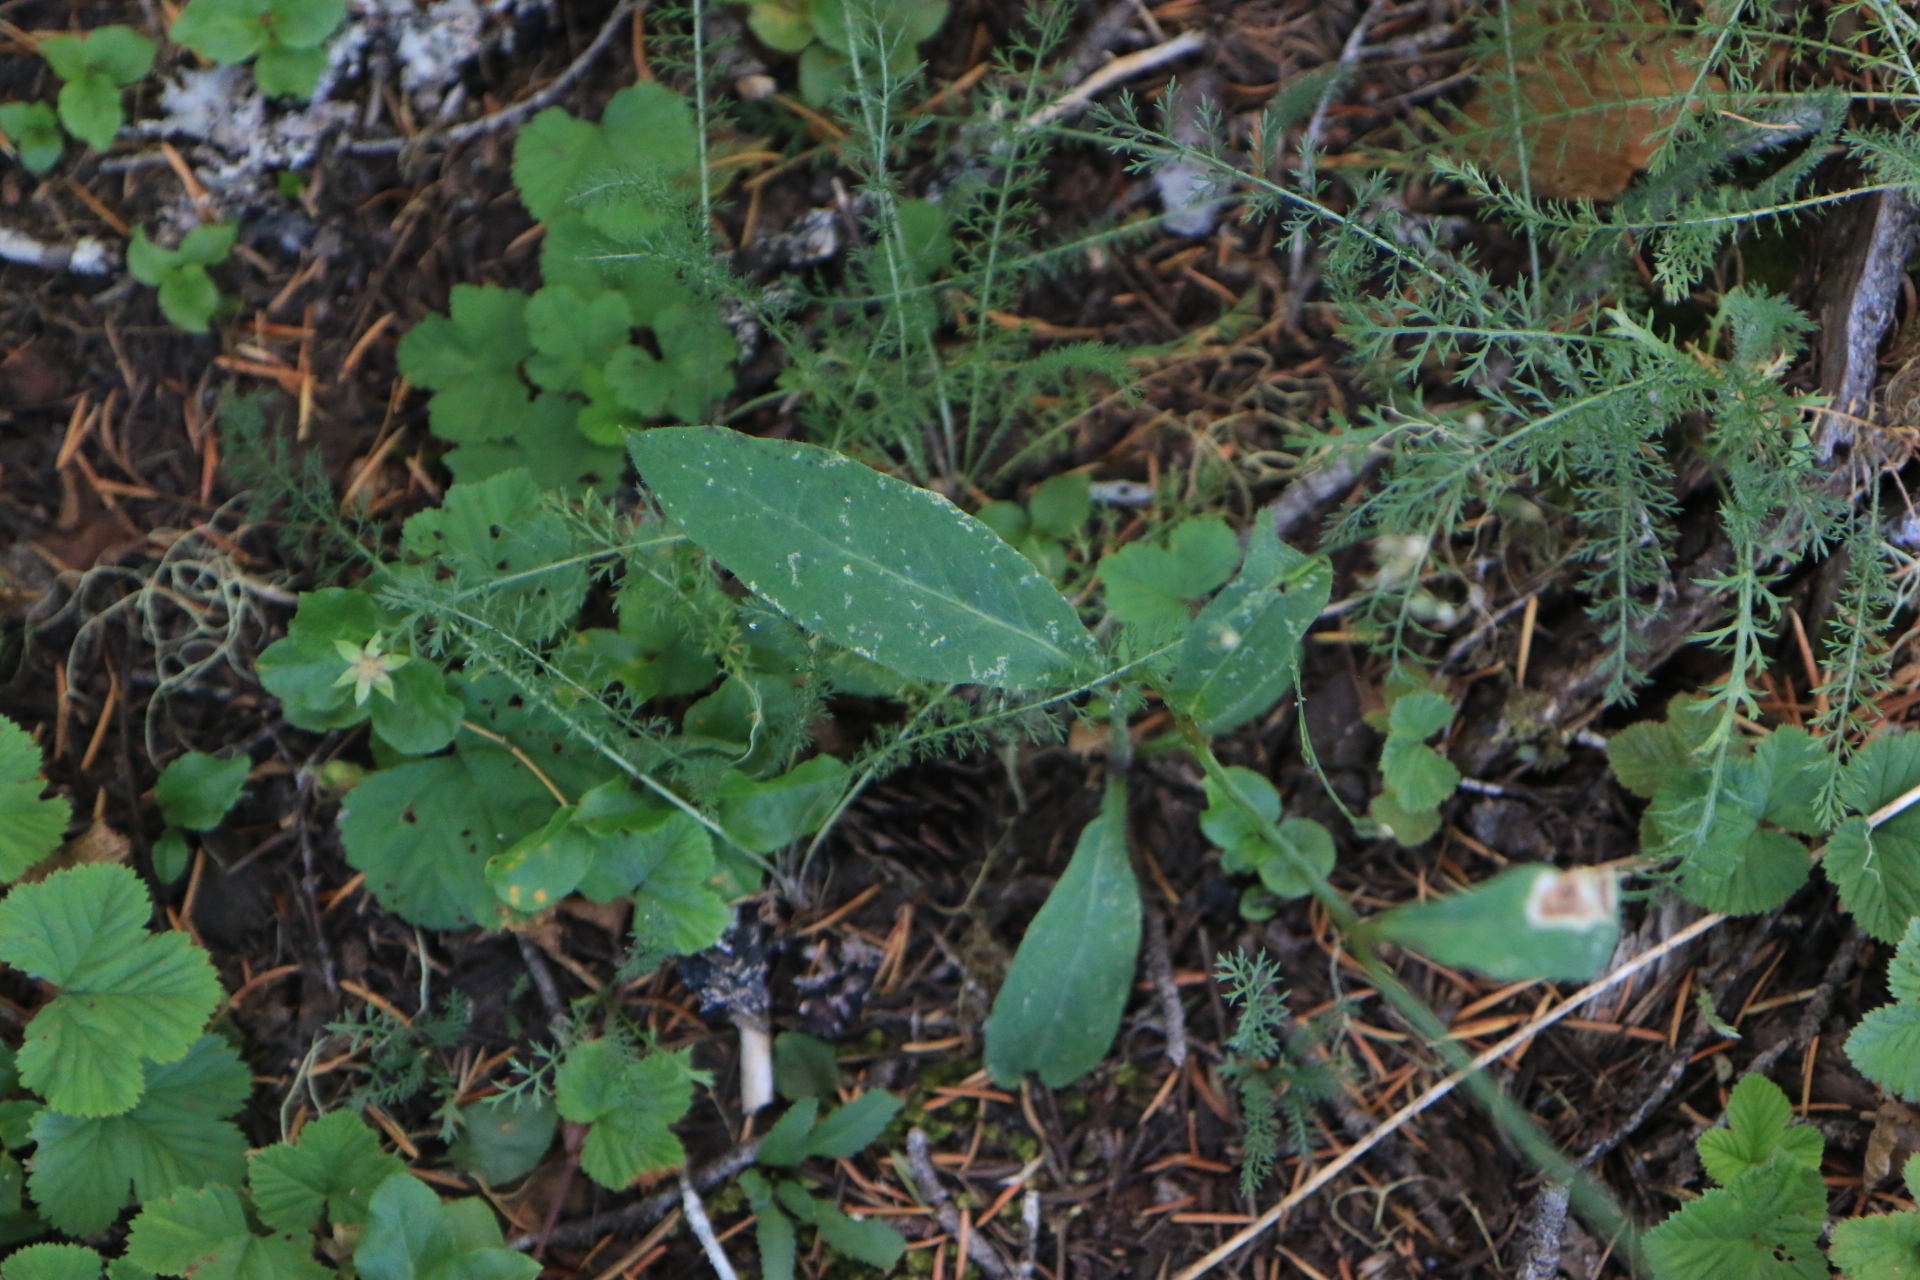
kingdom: Plantae
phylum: Tracheophyta
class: Magnoliopsida
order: Asterales
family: Asteraceae
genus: Hieracium
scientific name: Hieracium albiflorum
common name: White hawkweed
